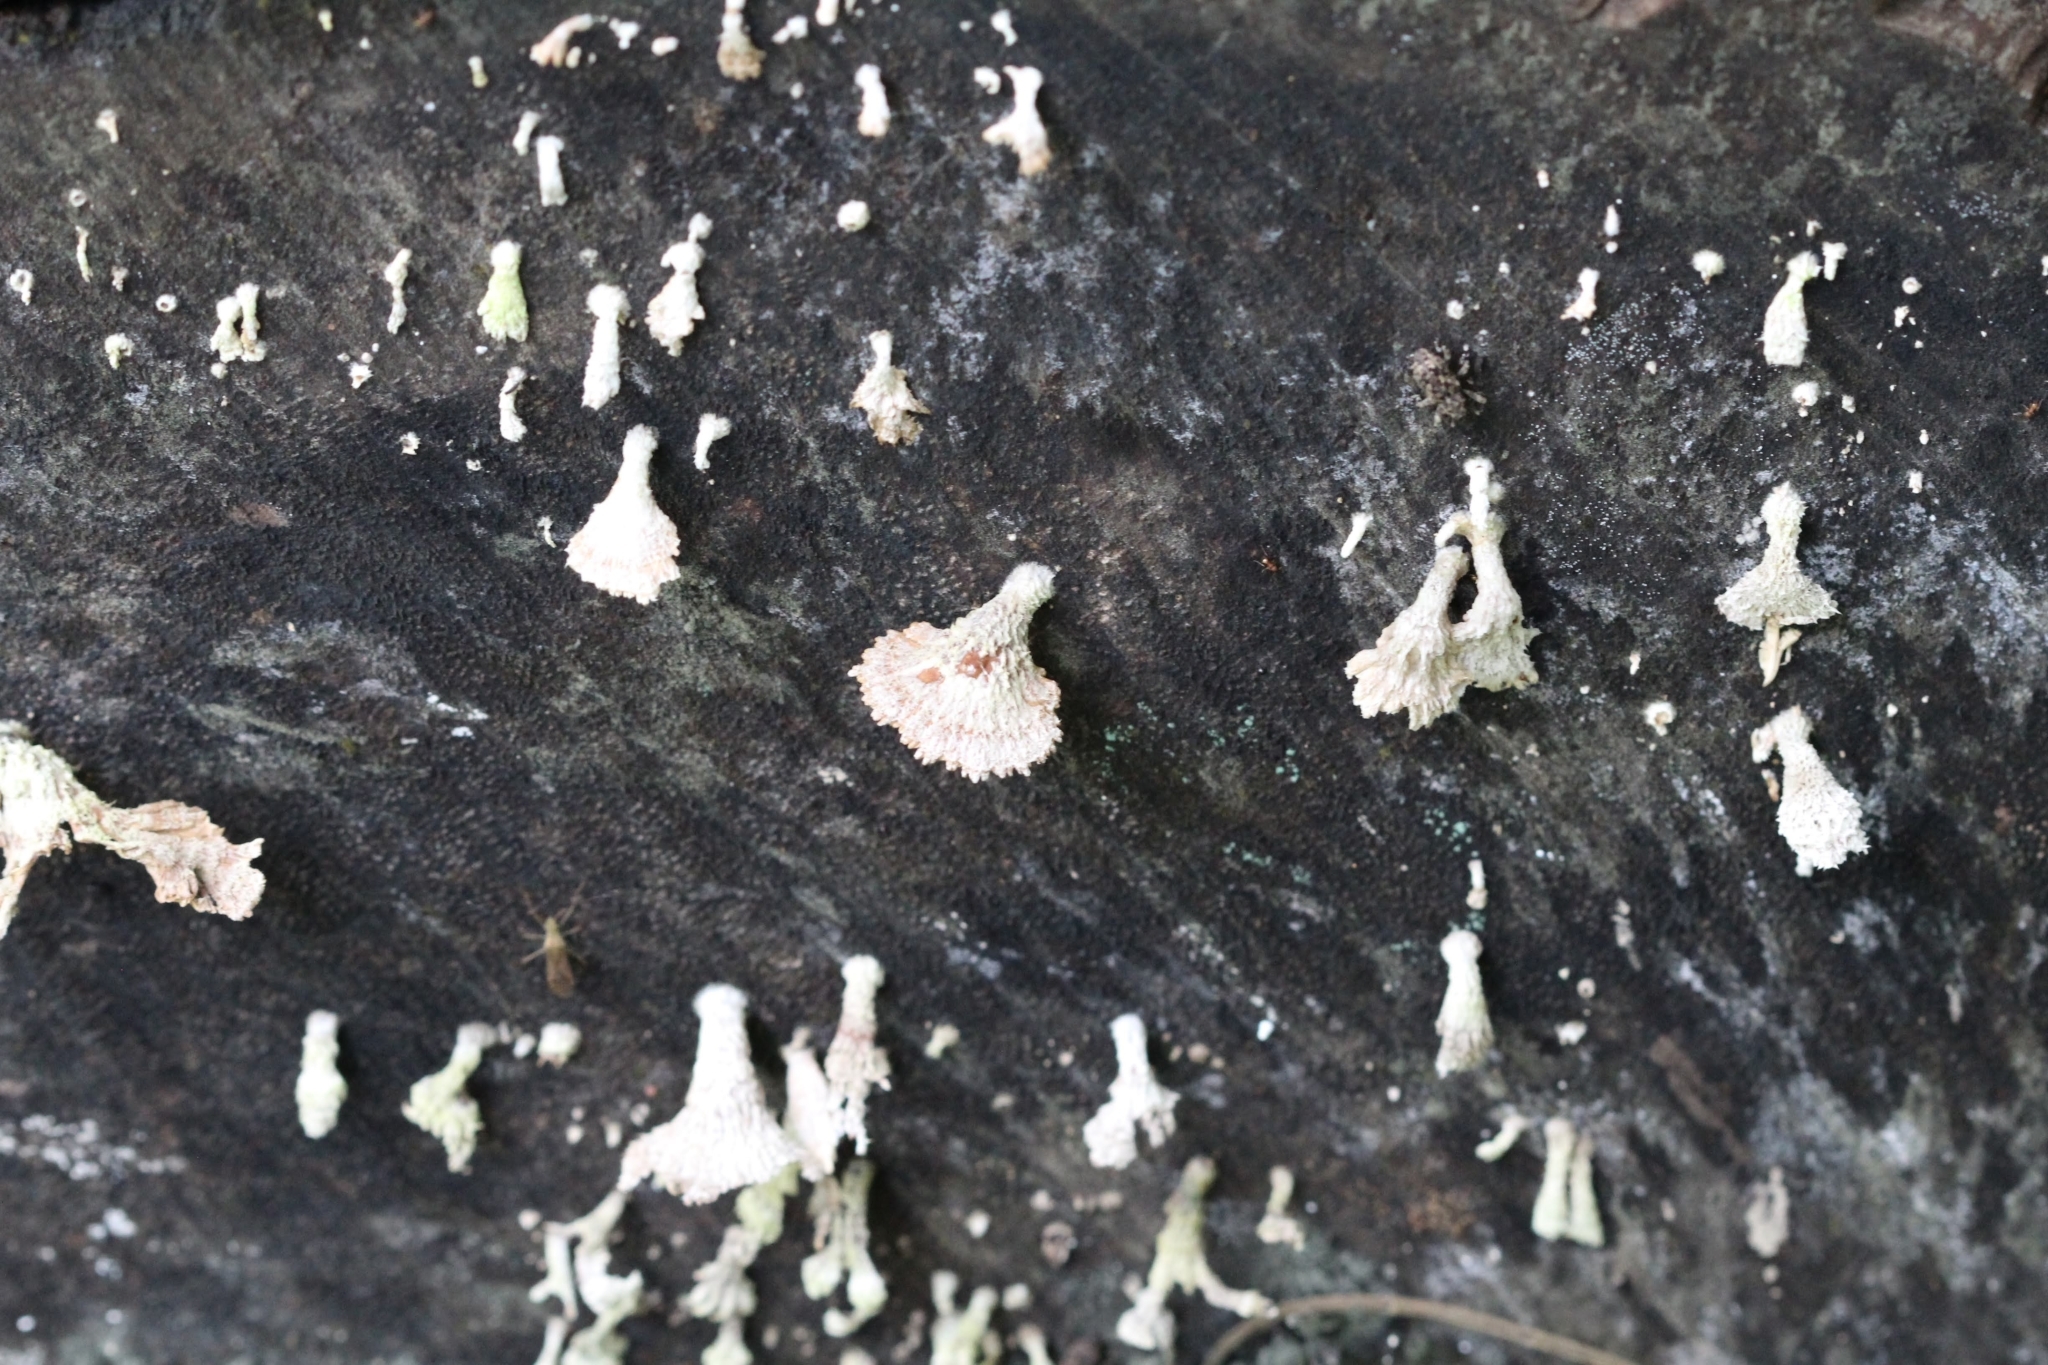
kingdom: Fungi
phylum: Basidiomycota
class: Agaricomycetes
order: Agaricales
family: Schizophyllaceae
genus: Schizophyllum
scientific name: Schizophyllum commune
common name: Common porecrust
